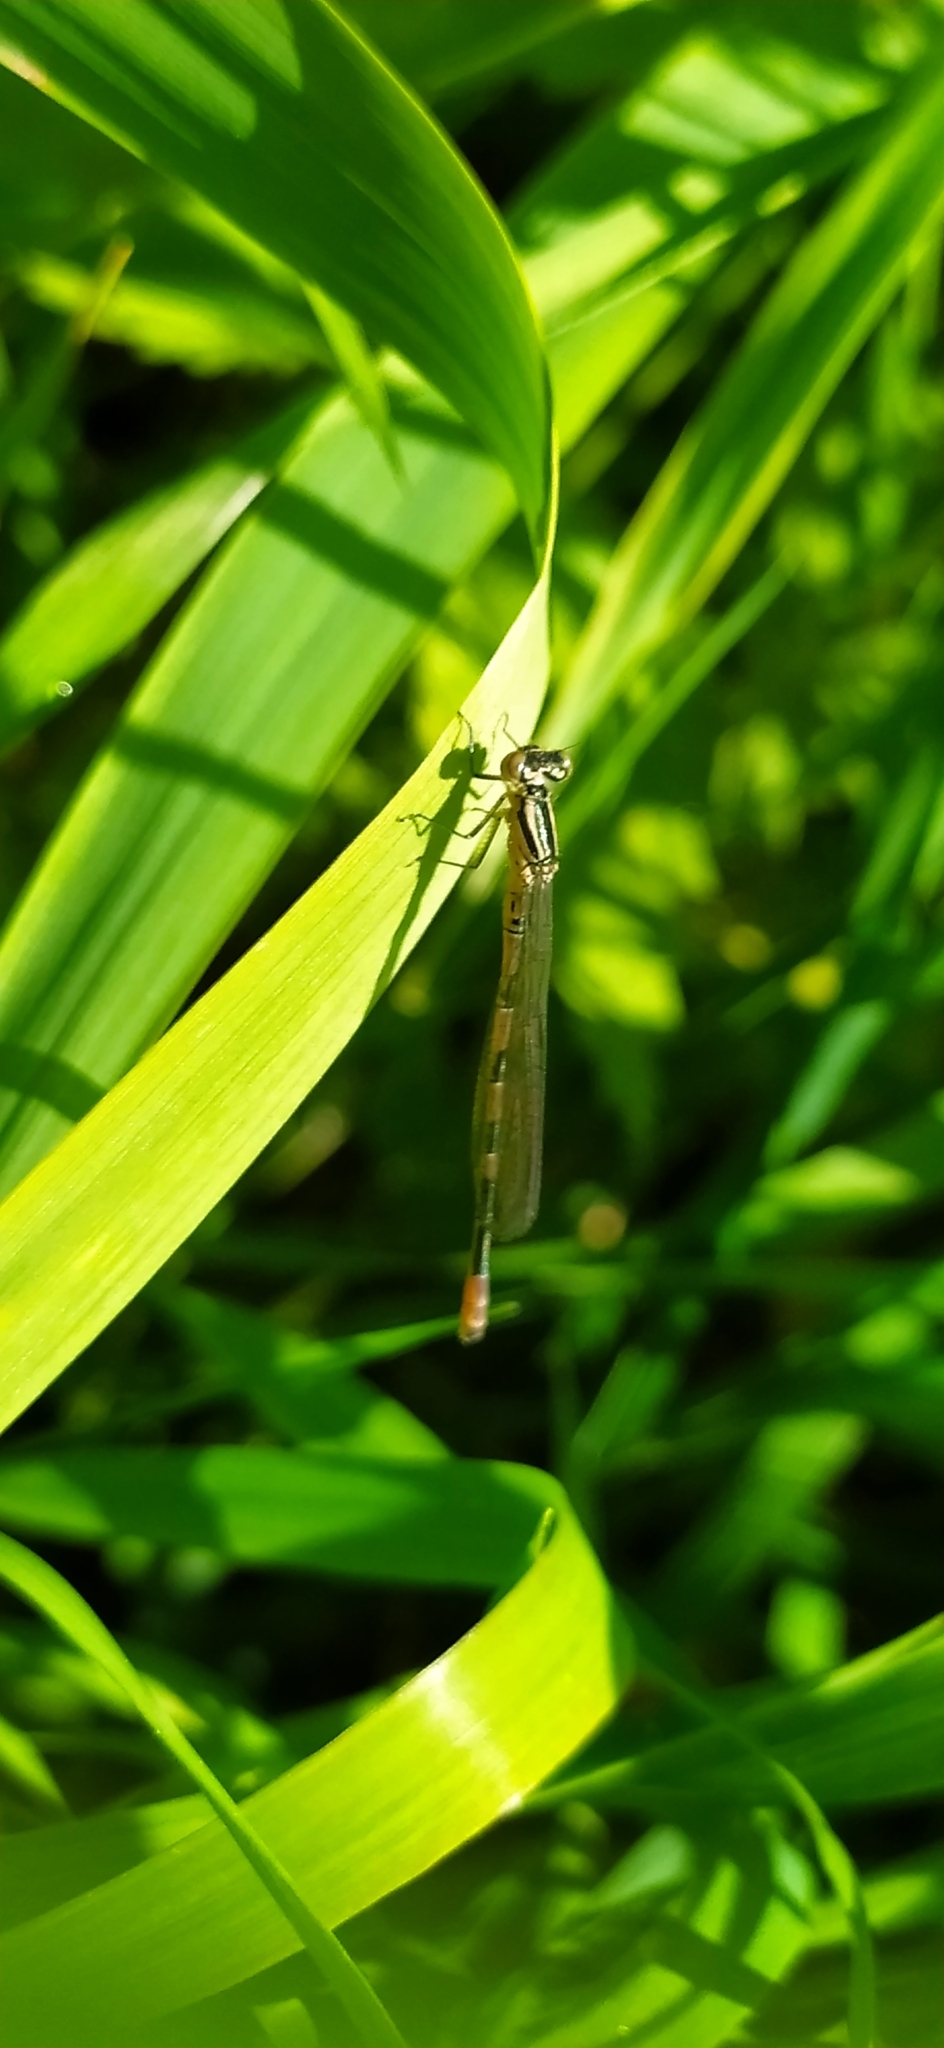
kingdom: Animalia
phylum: Arthropoda
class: Insecta
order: Odonata
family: Coenagrionidae
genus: Coenagrion
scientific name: Coenagrion hastulatum
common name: Spearhead bluet
